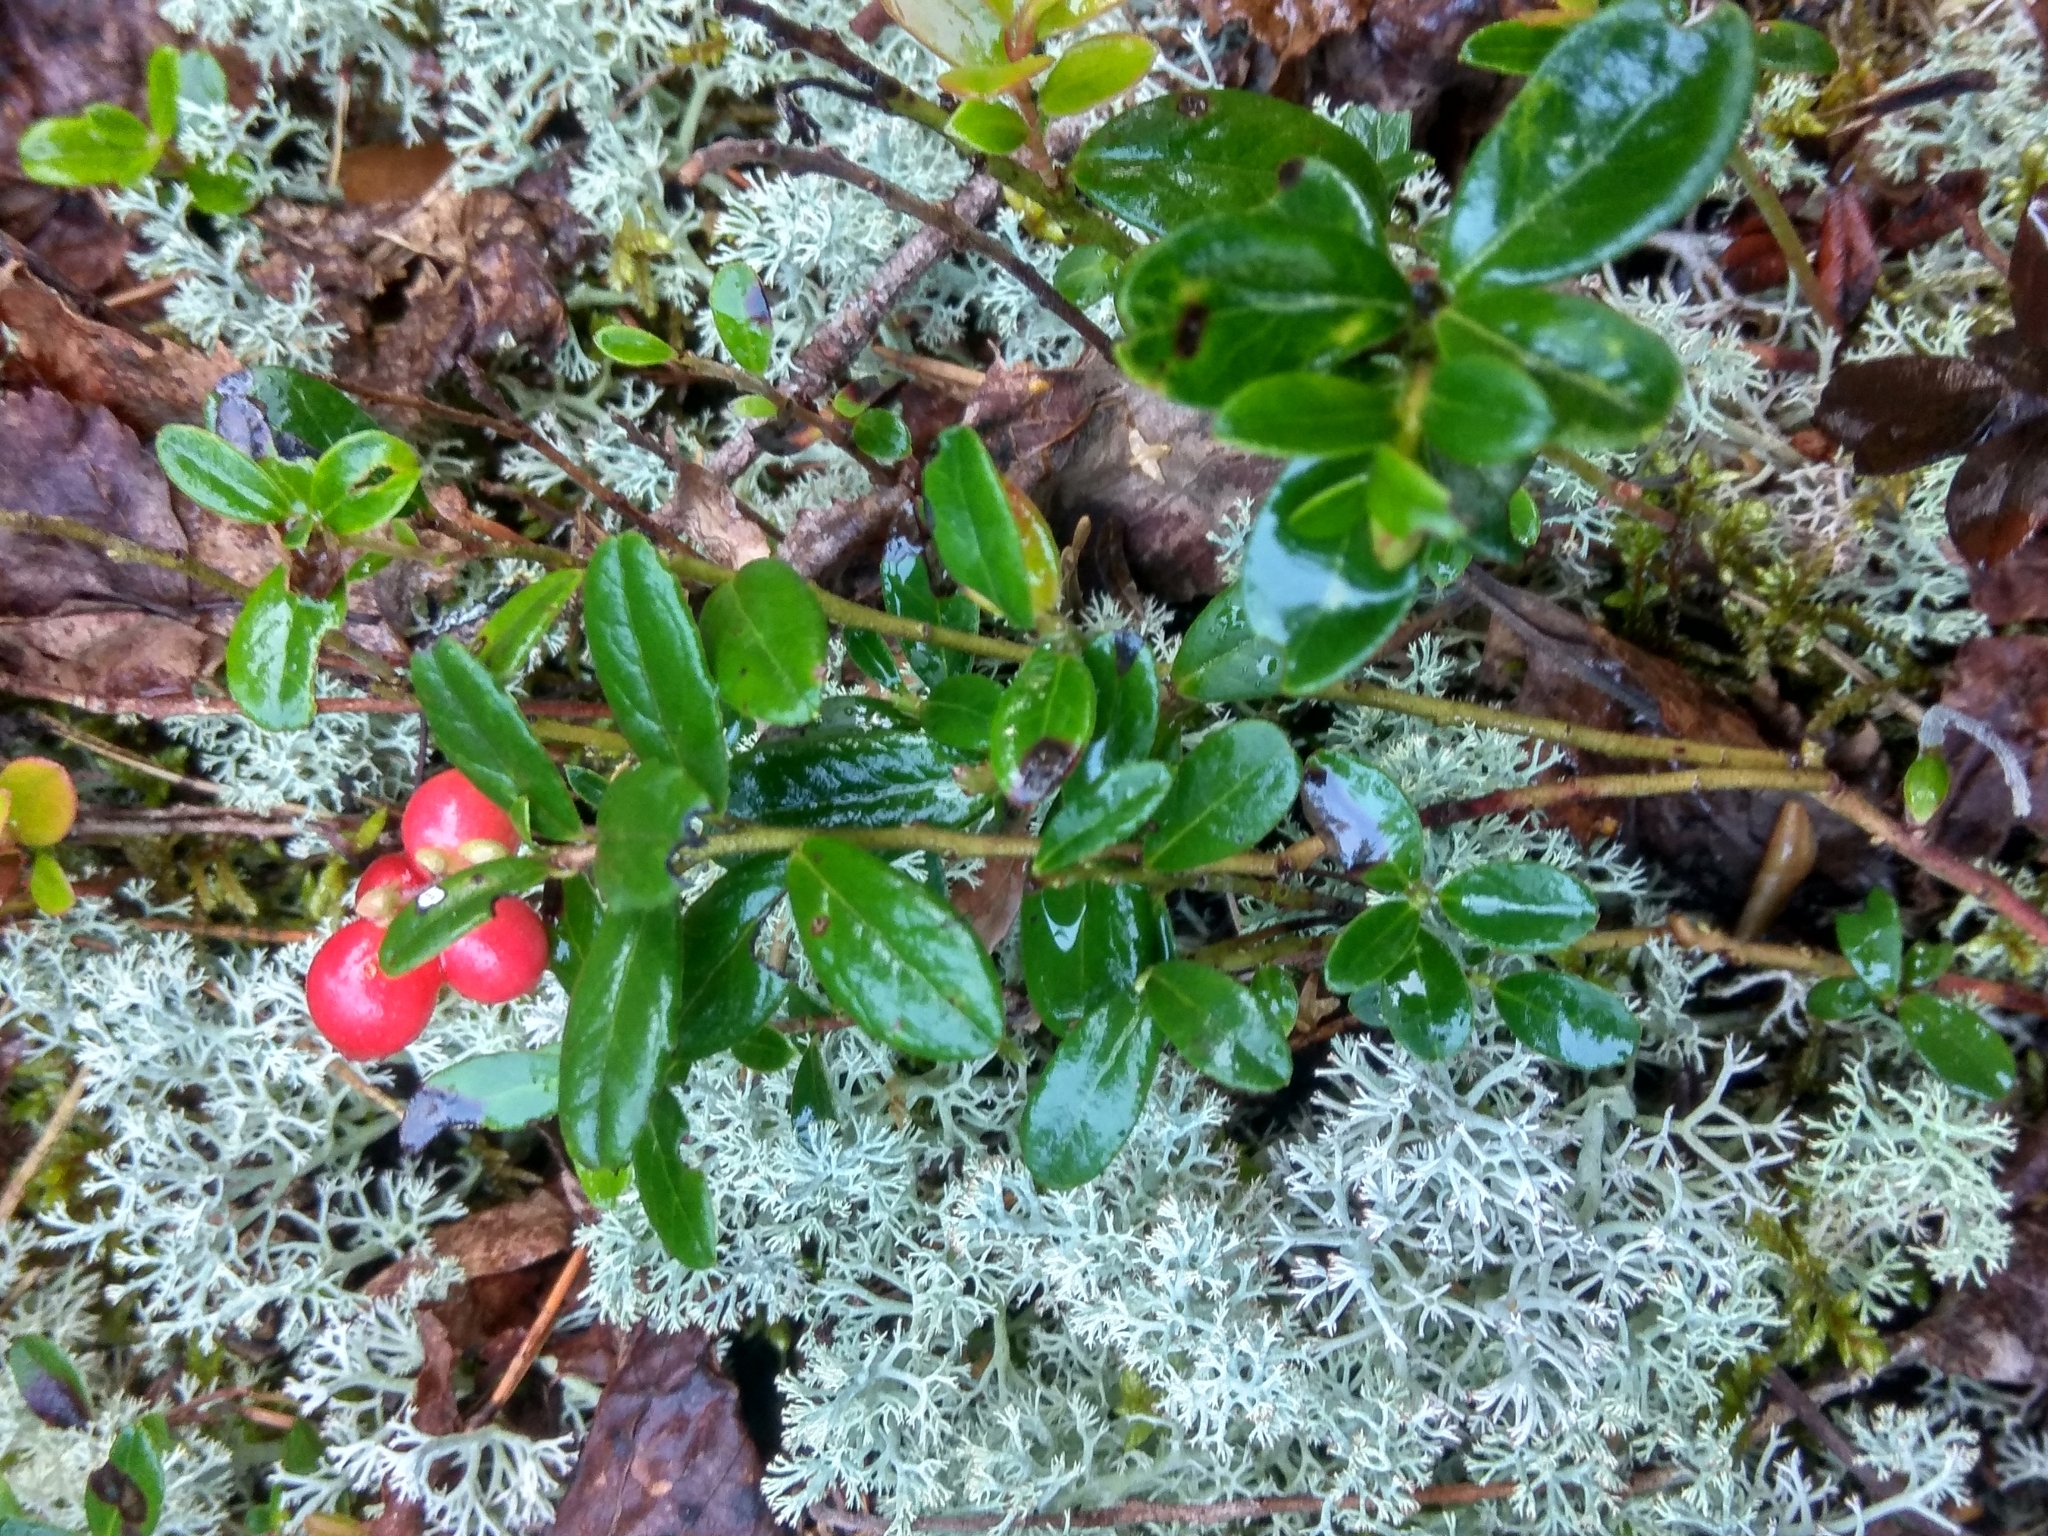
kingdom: Plantae
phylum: Tracheophyta
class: Magnoliopsida
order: Ericales
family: Ericaceae
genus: Vaccinium
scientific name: Vaccinium vitis-idaea
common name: Cowberry
